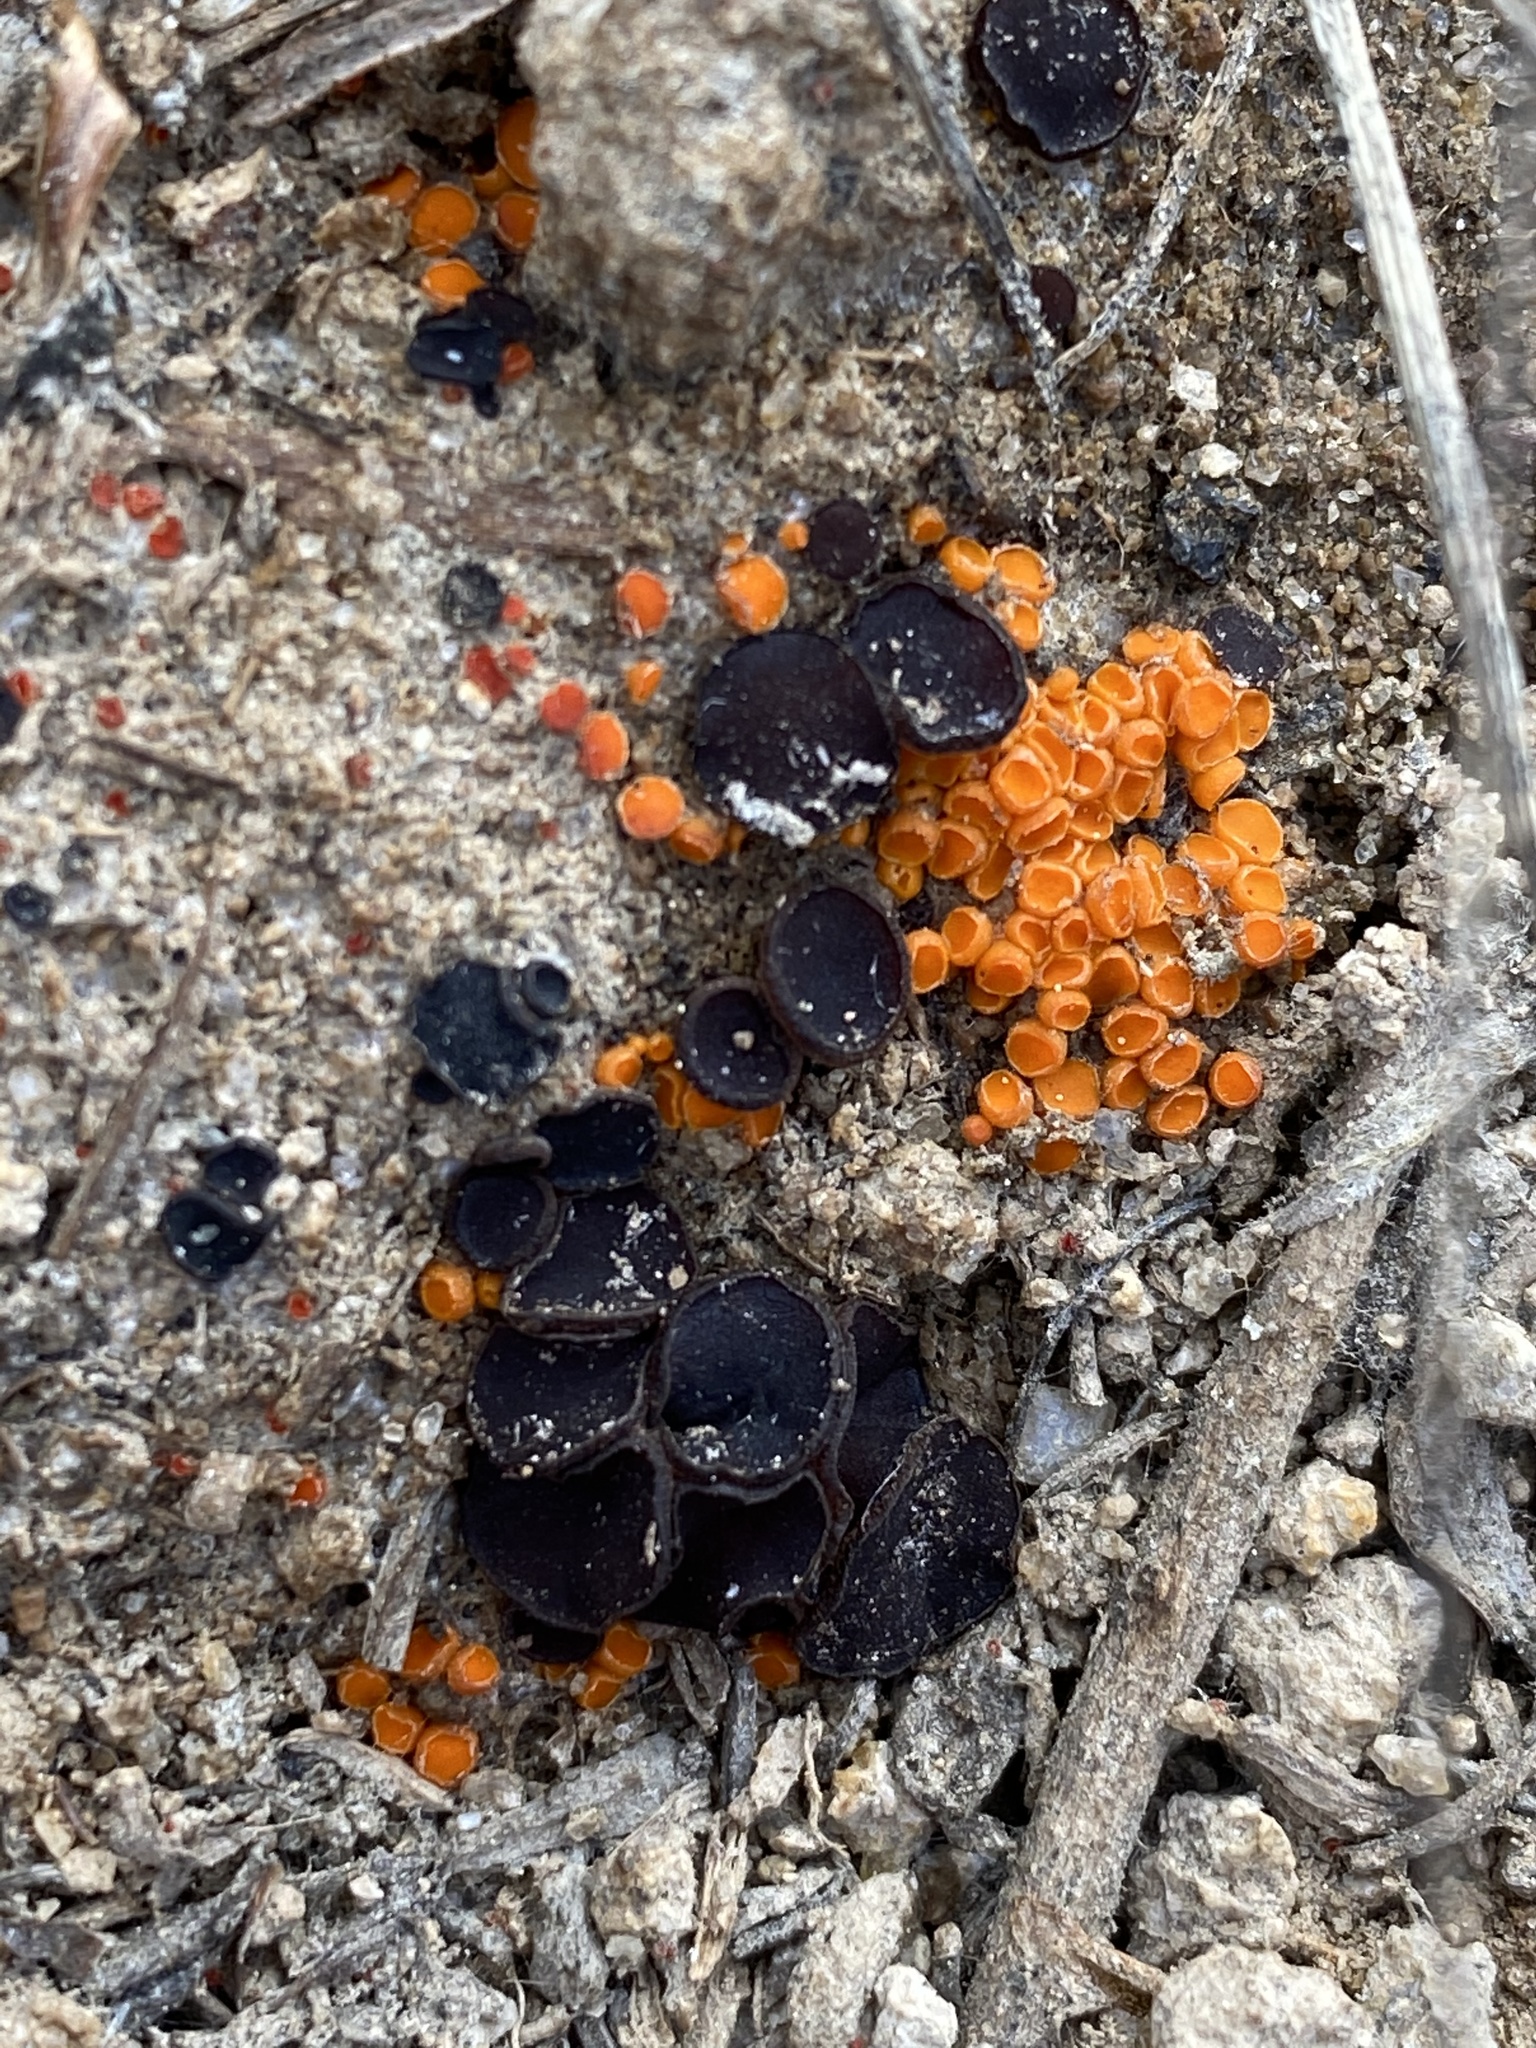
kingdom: Fungi
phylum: Ascomycota
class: Pezizomycetes
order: Pezizales
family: Pyronemataceae
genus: Byssonectria
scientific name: Byssonectria terrestris
